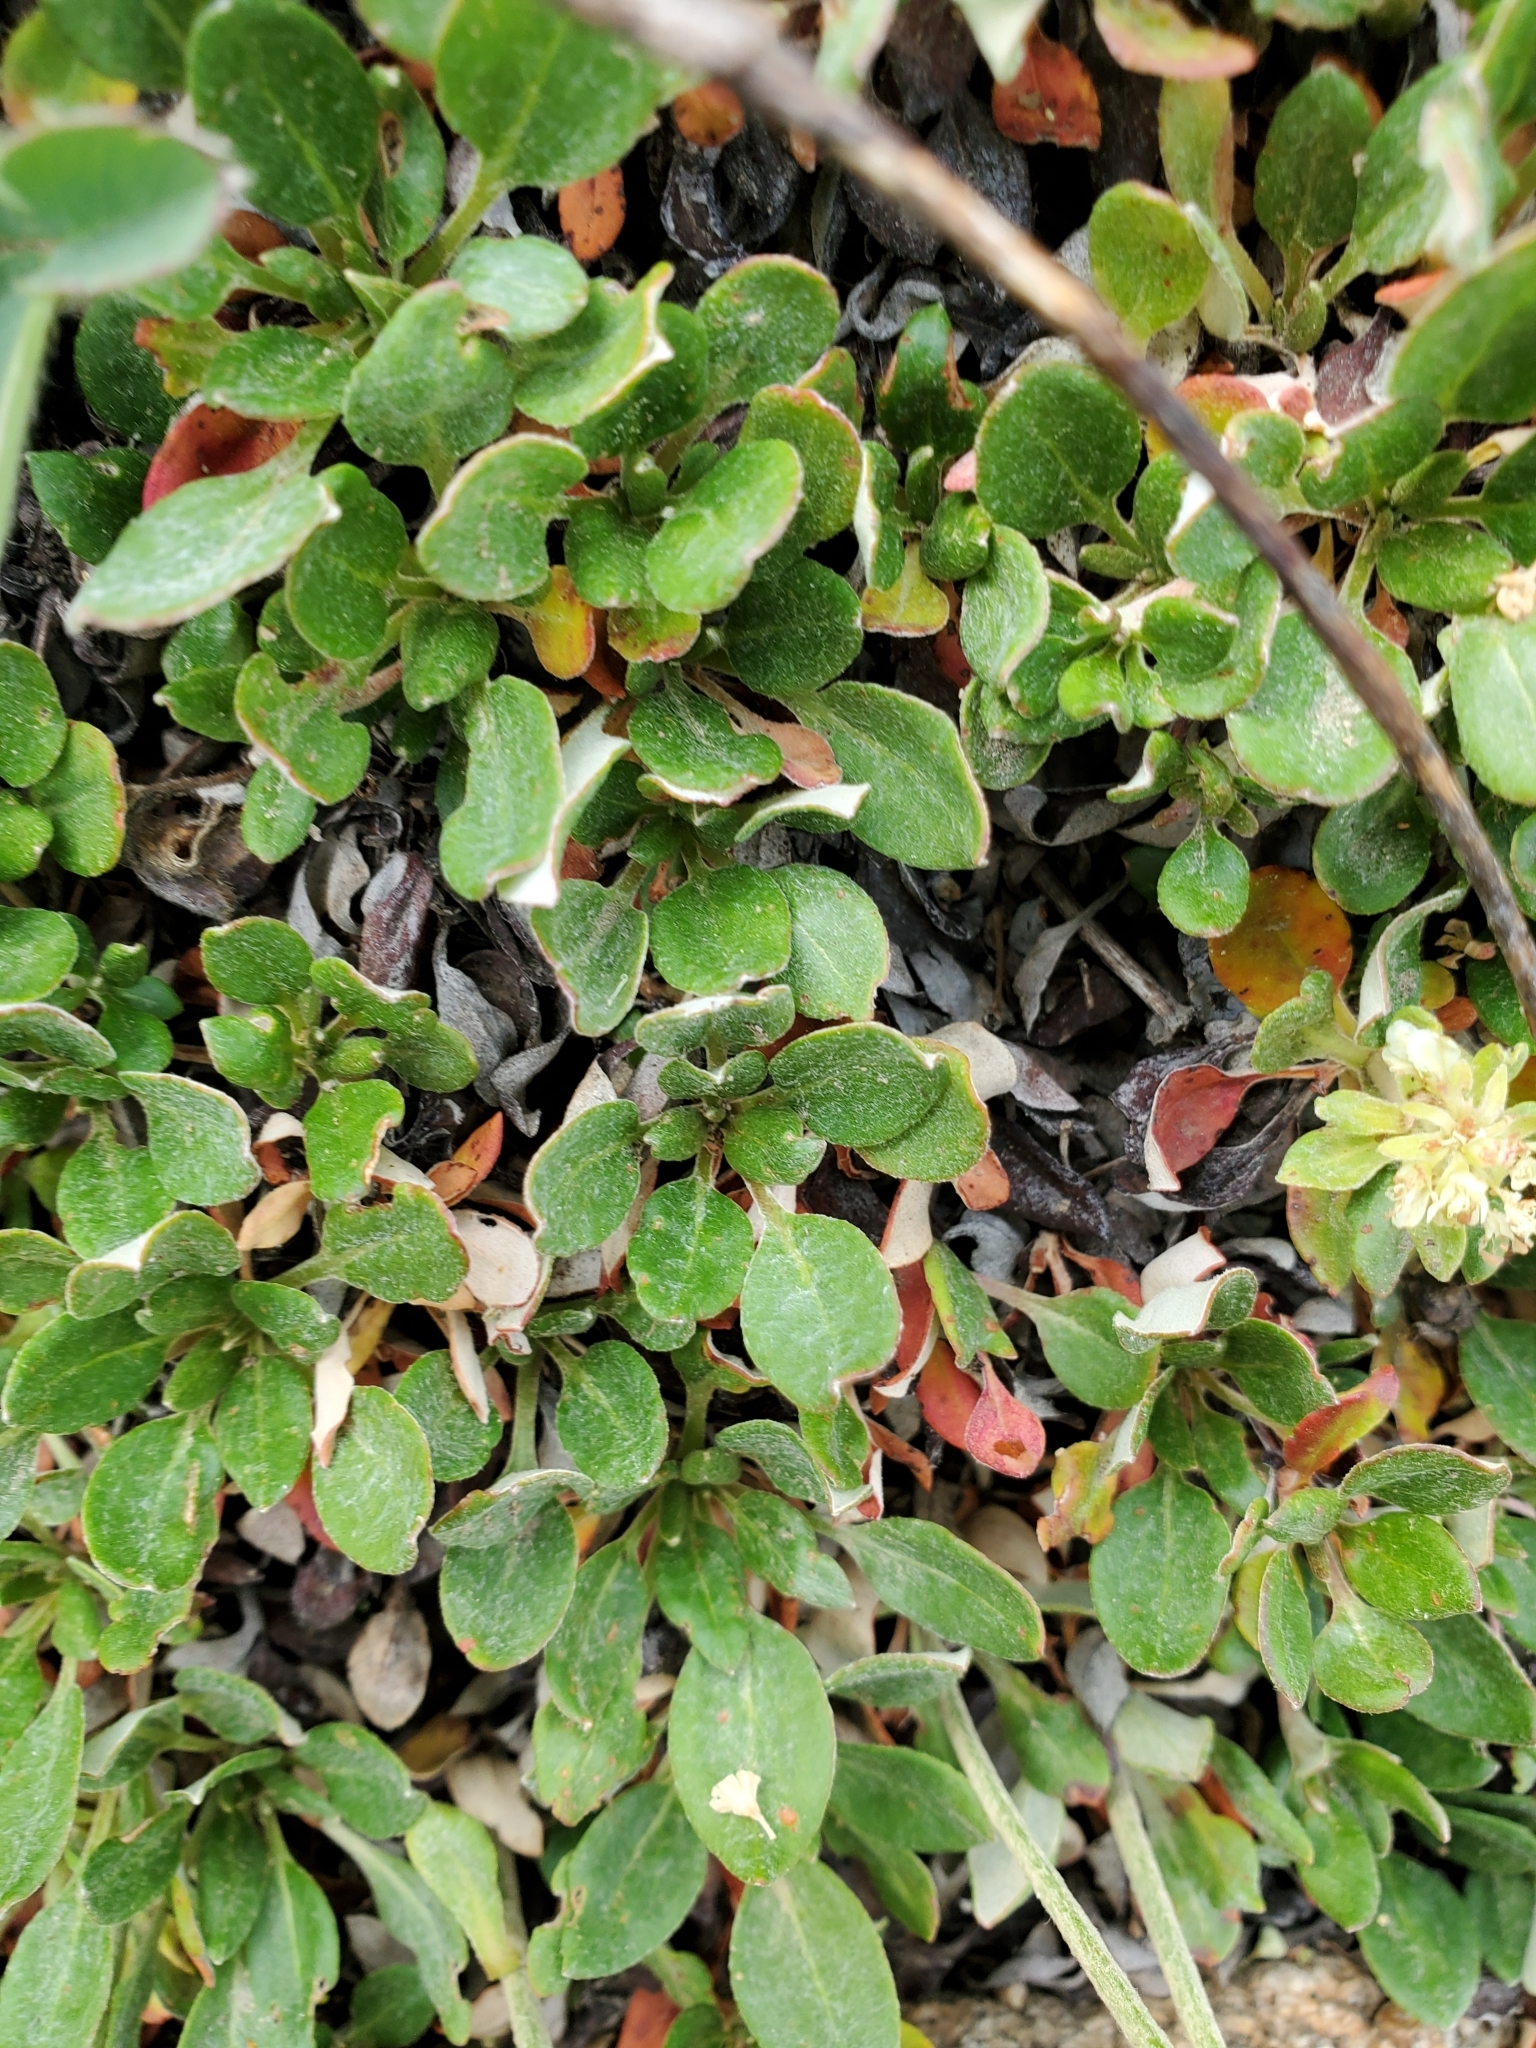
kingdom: Plantae
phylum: Tracheophyta
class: Magnoliopsida
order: Caryophyllales
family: Polygonaceae
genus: Eriogonum
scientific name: Eriogonum umbellatum
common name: Sulfur-buckwheat
